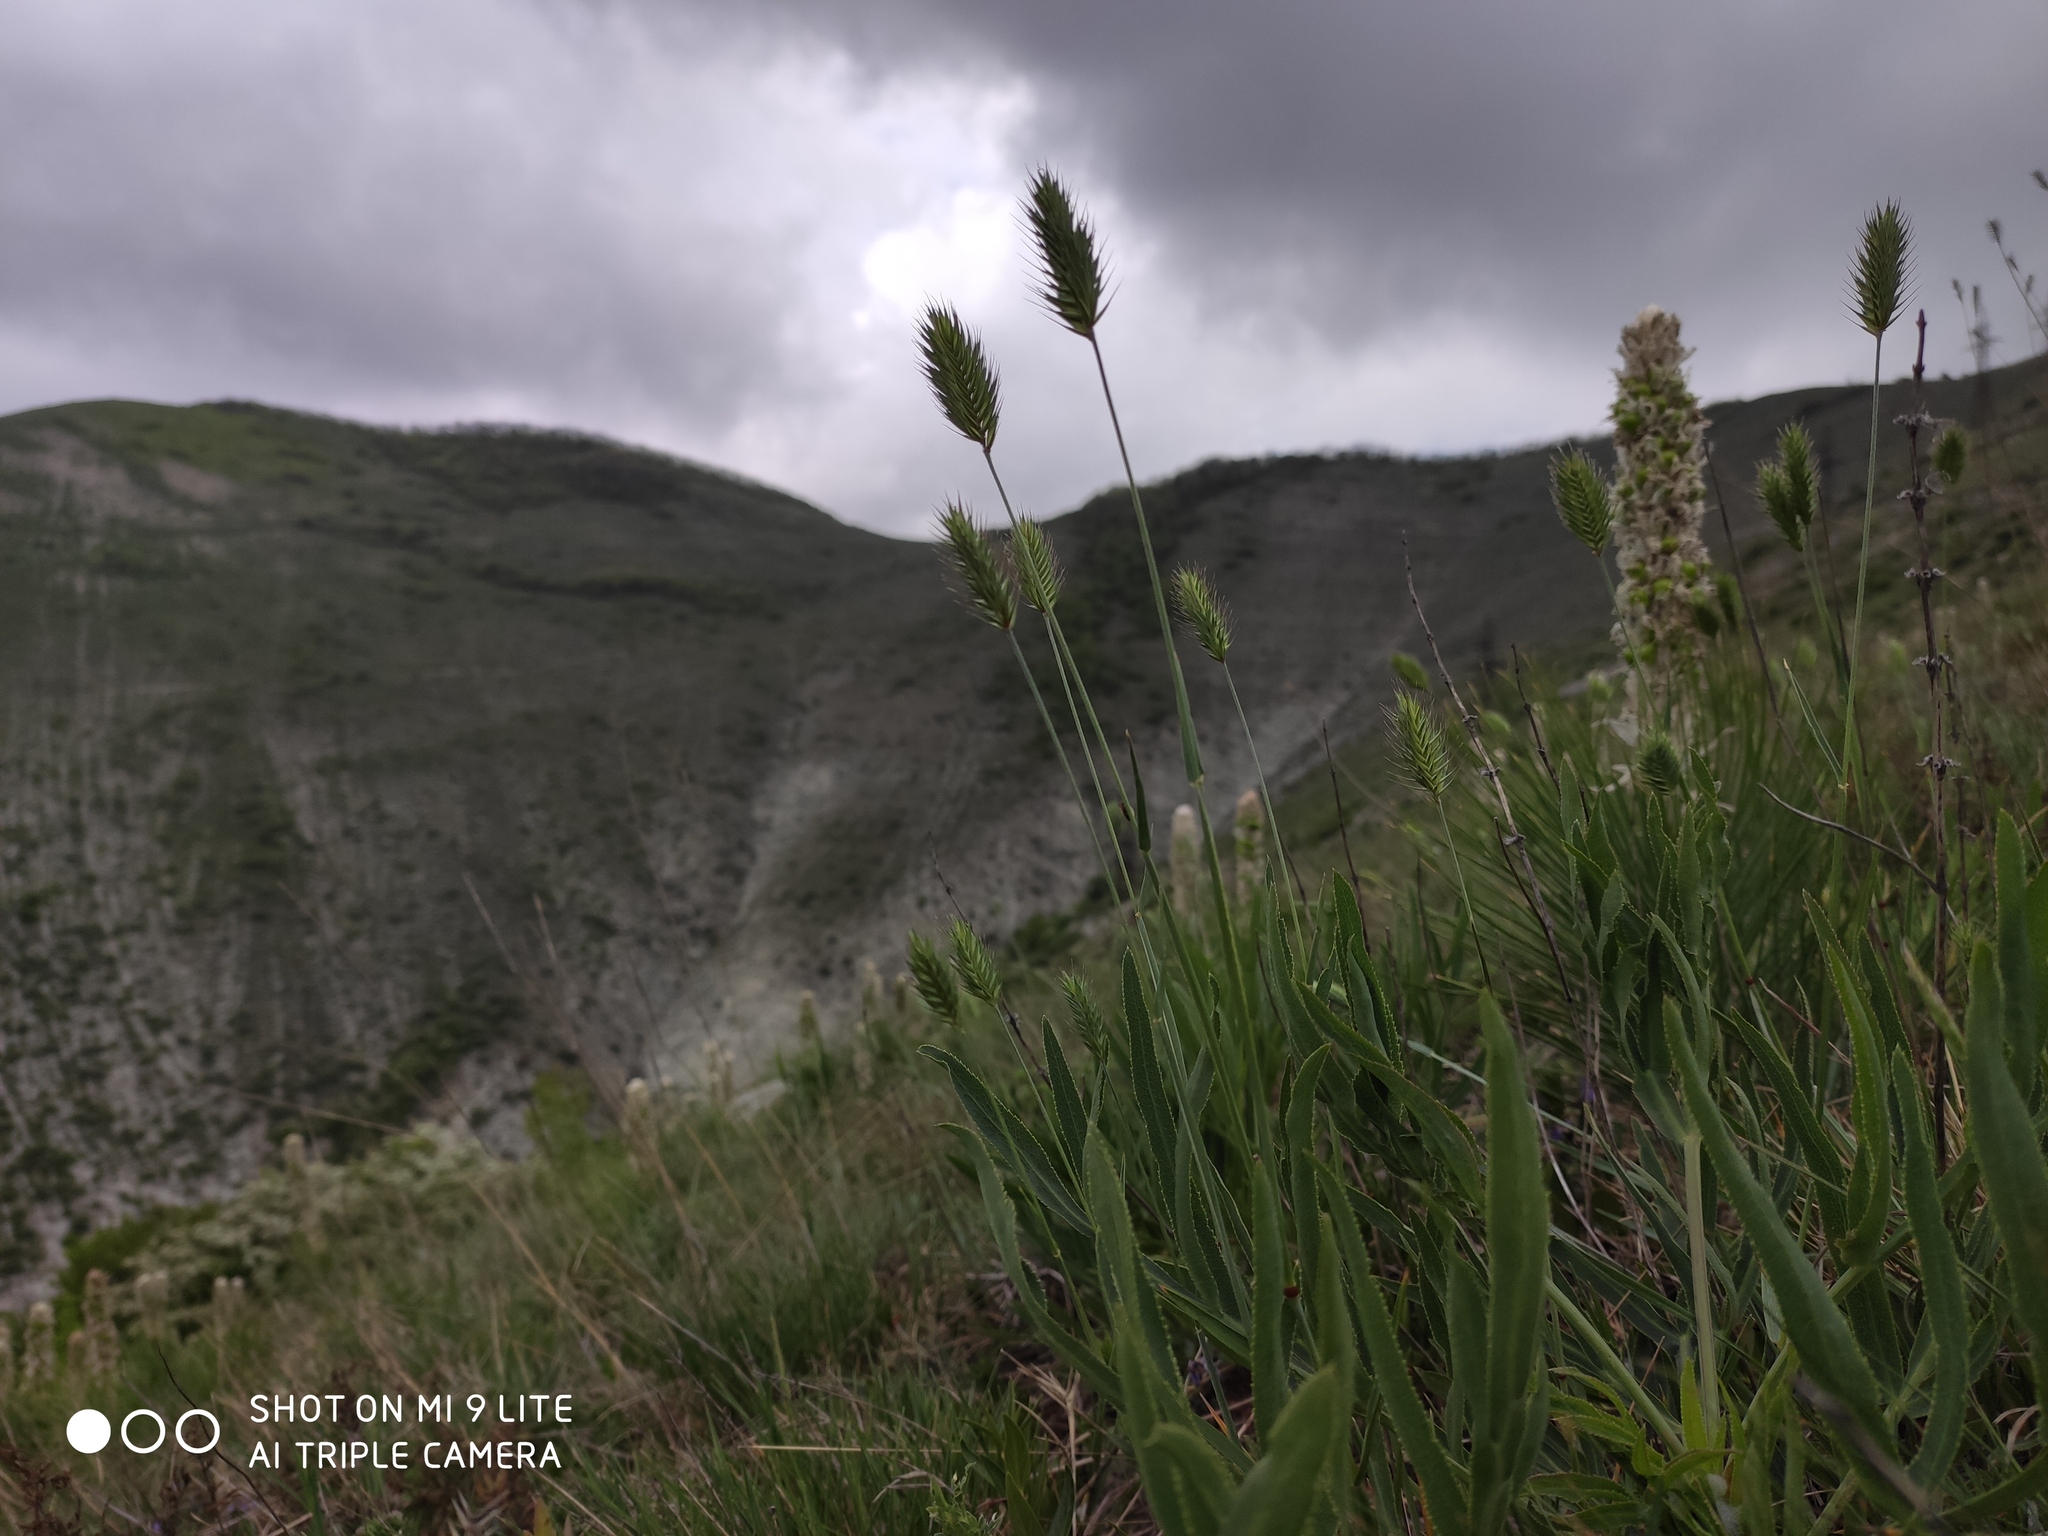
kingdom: Plantae
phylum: Tracheophyta
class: Liliopsida
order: Poales
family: Poaceae
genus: Agropyron
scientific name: Agropyron cristatum
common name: Crested wheatgrass
